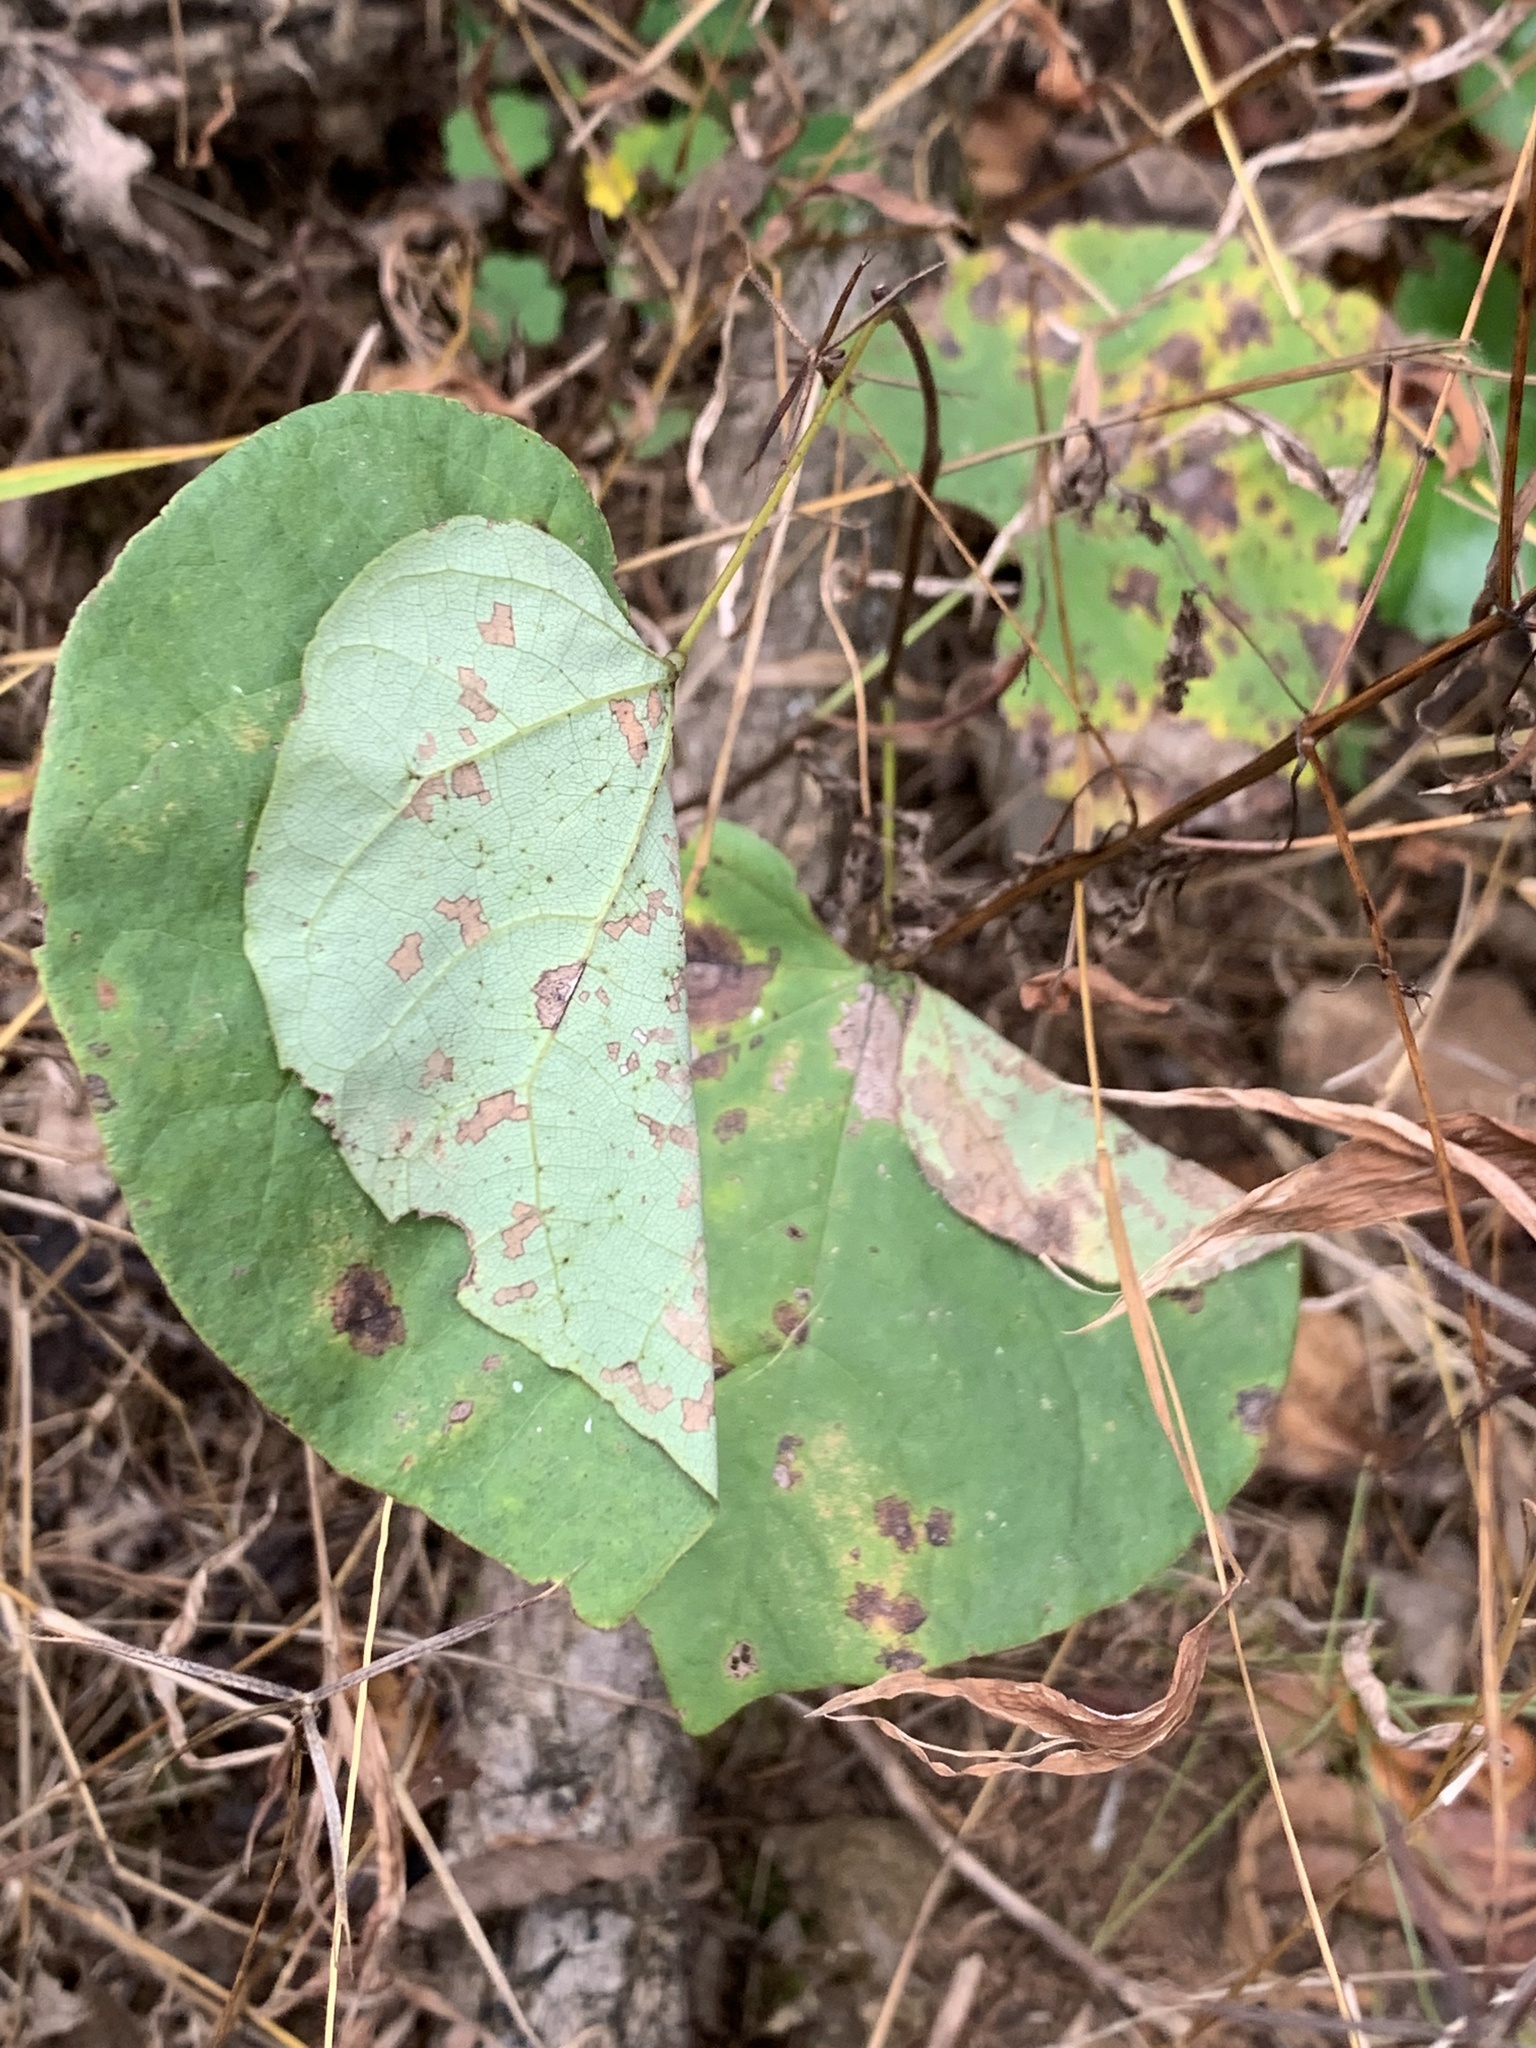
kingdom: Animalia
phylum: Arthropoda
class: Insecta
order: Lepidoptera
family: Gelechiidae
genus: Fascista
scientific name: Fascista cercerisella
